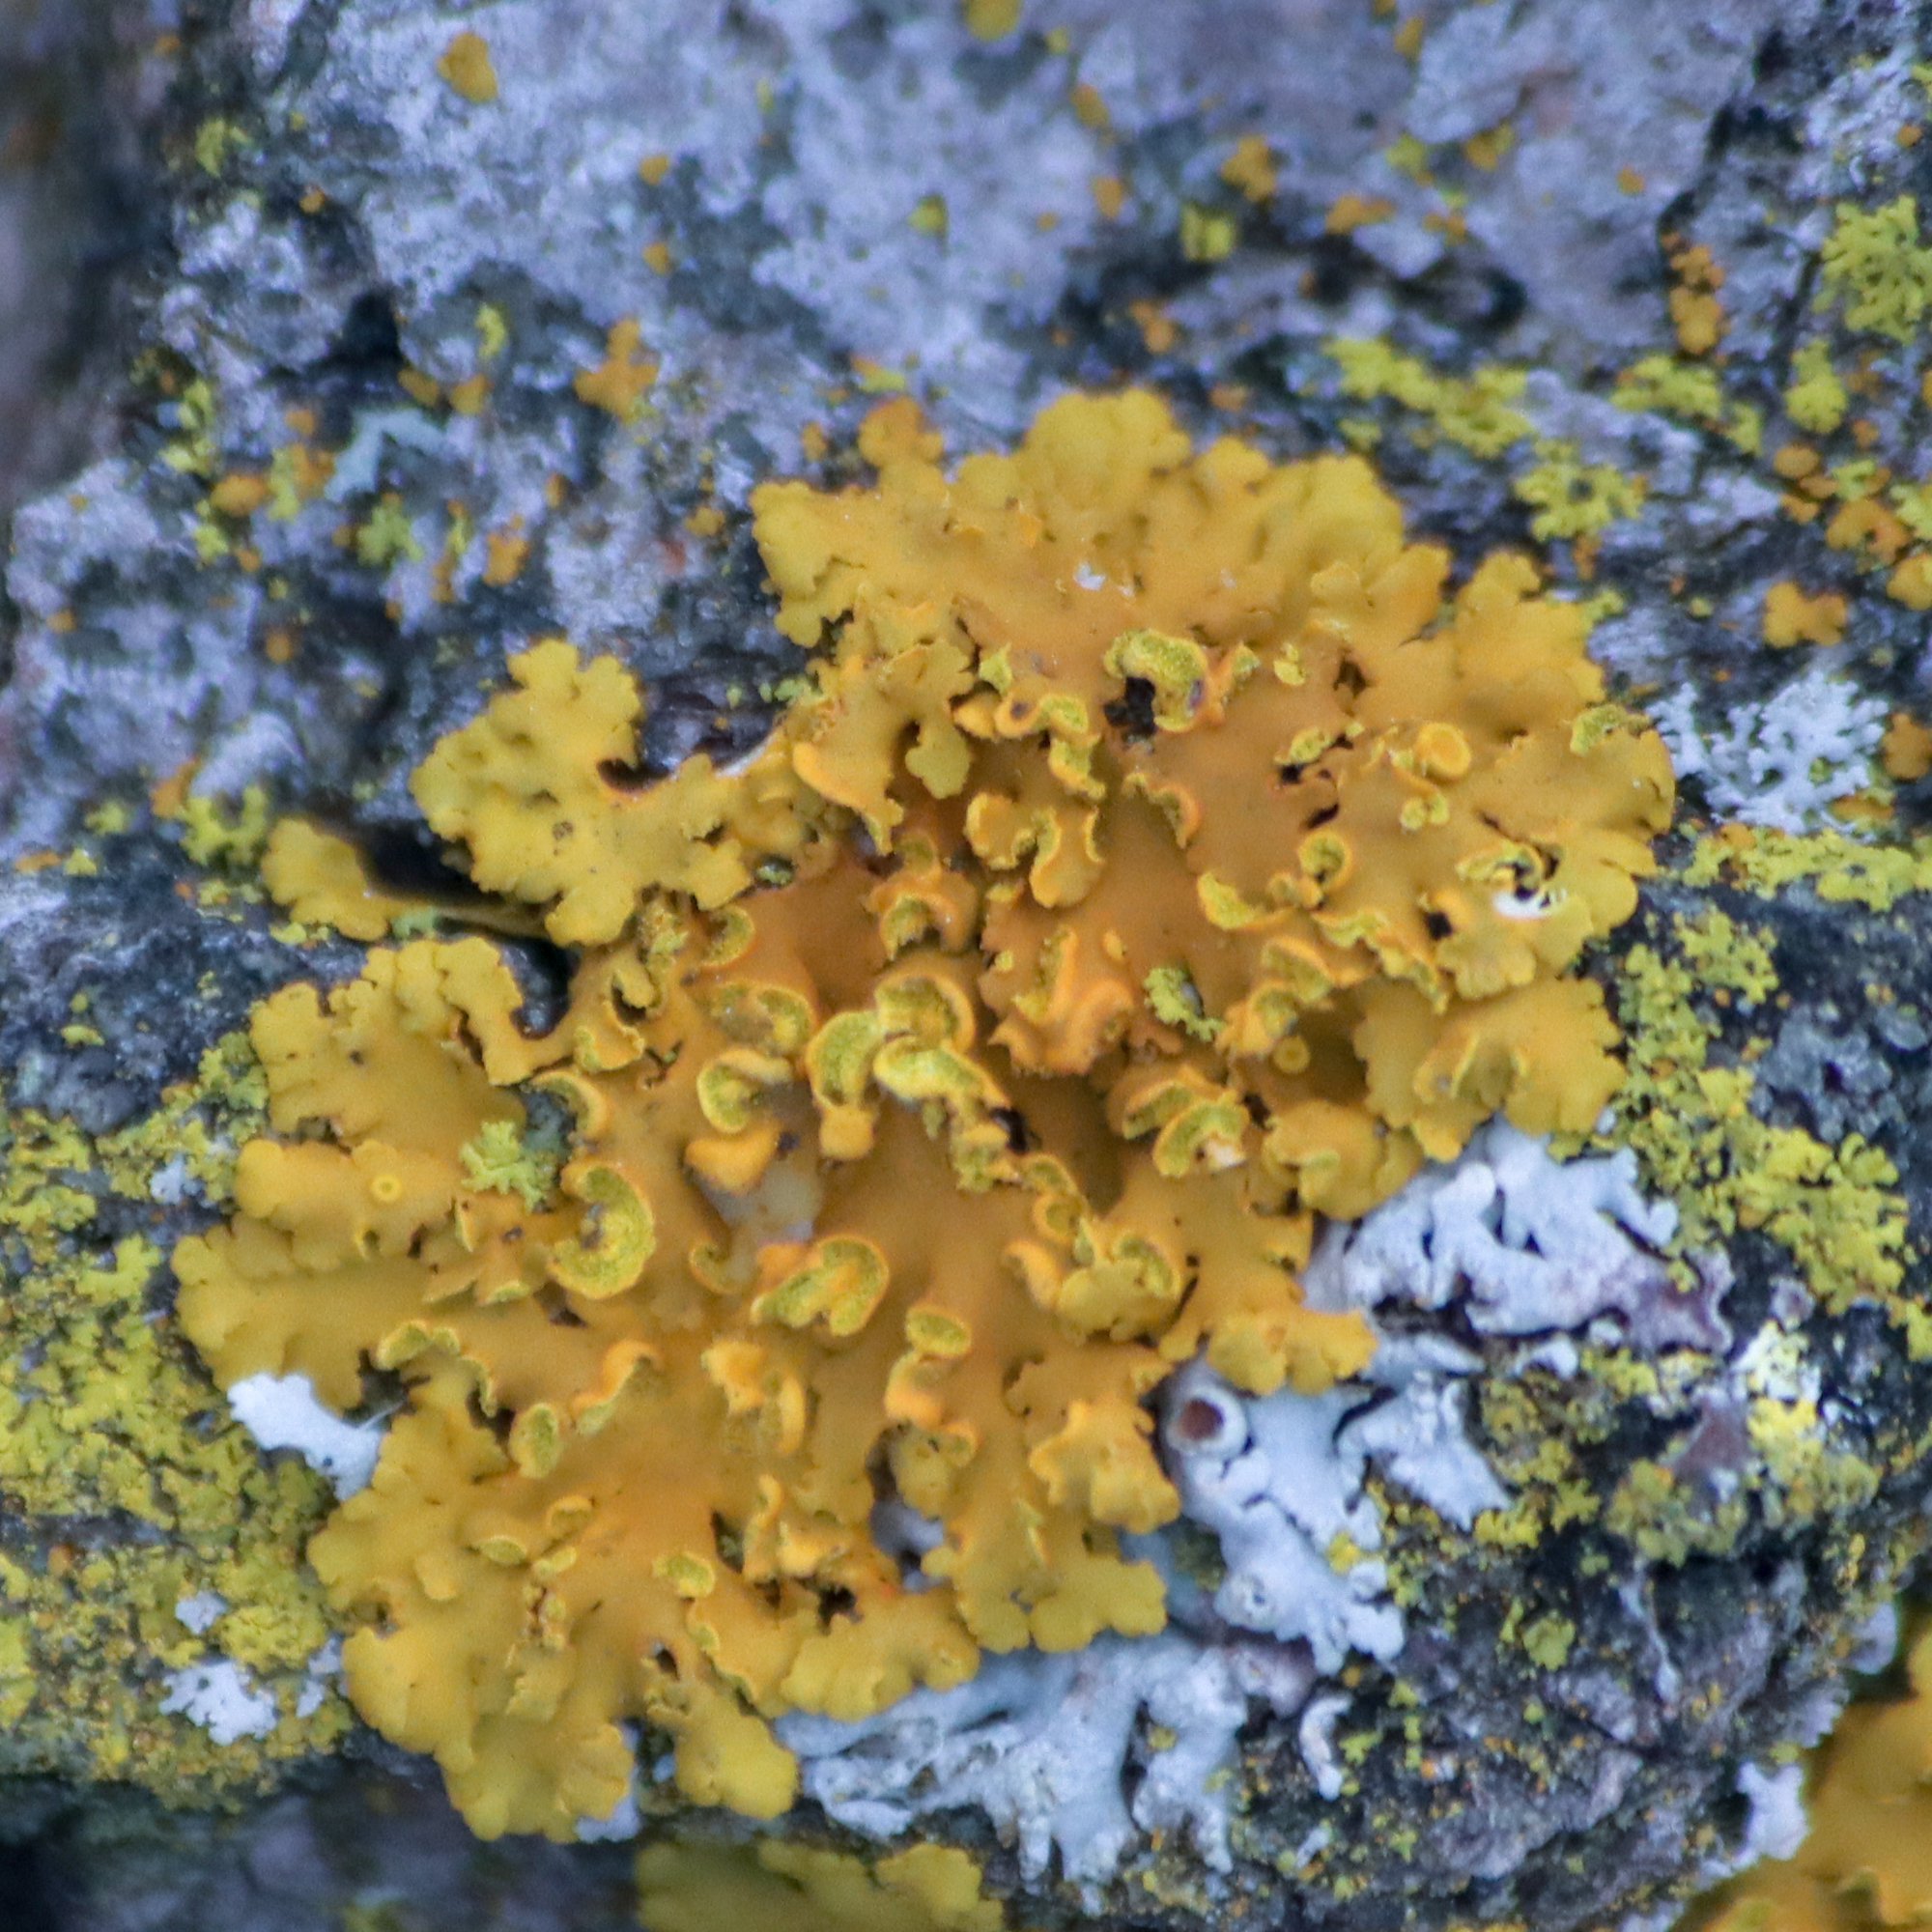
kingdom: Fungi
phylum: Ascomycota
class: Lecanoromycetes
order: Teloschistales
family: Teloschistaceae
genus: Oxneria
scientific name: Oxneria fallax
